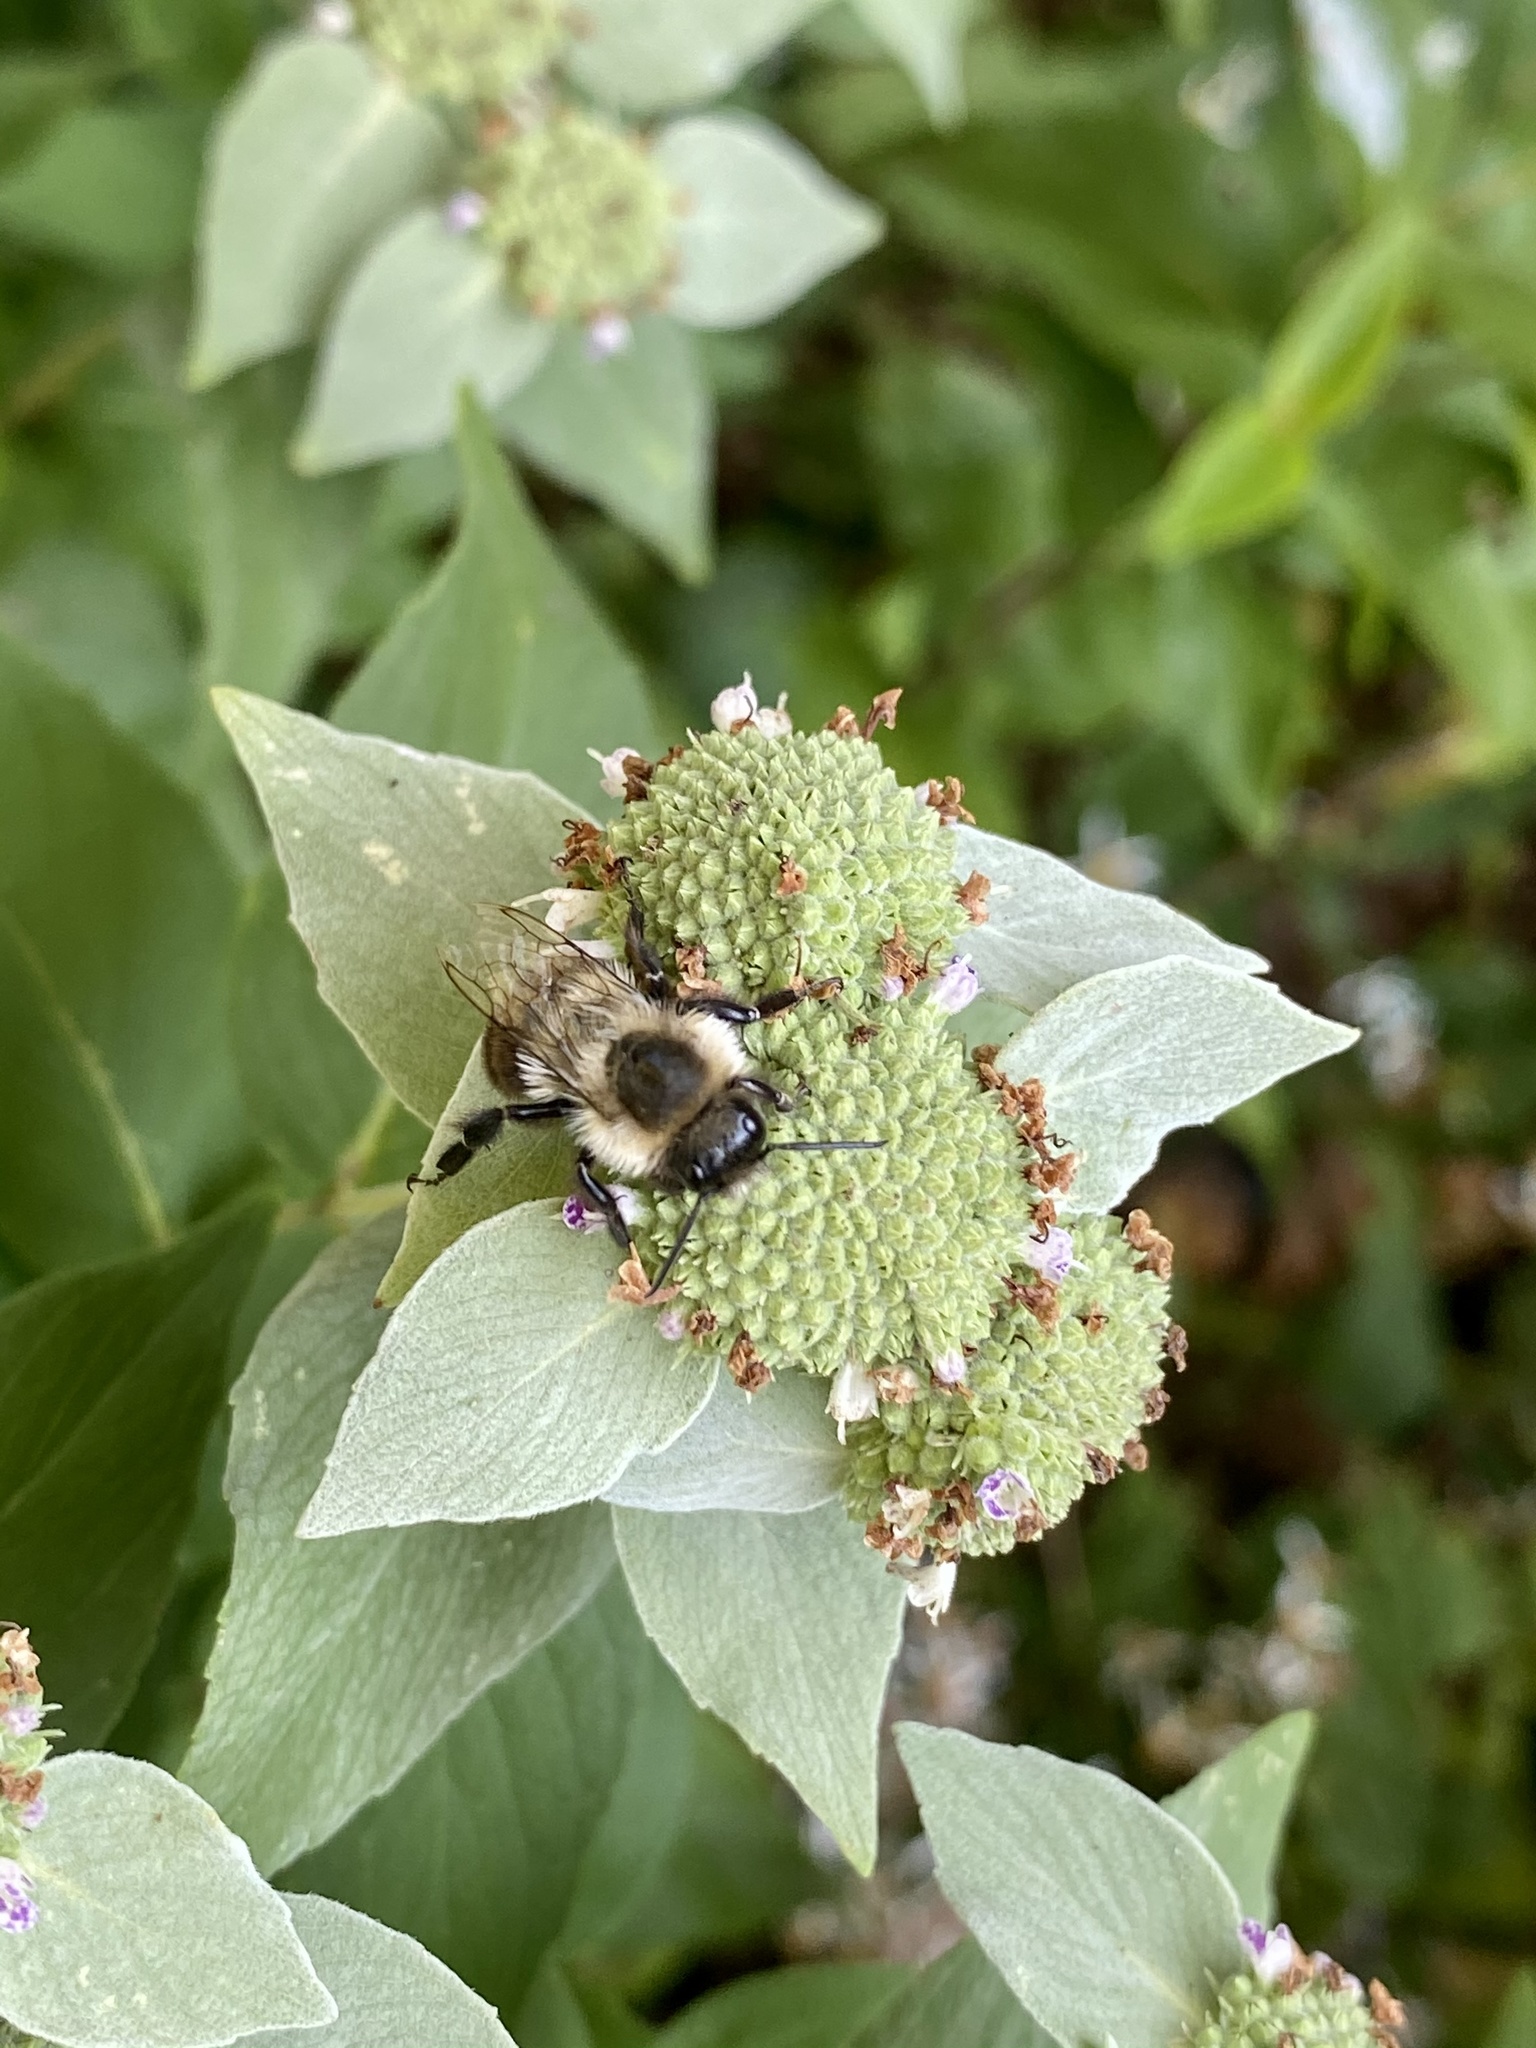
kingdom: Animalia
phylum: Arthropoda
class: Insecta
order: Hymenoptera
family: Apidae
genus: Bombus
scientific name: Bombus impatiens
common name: Common eastern bumble bee
